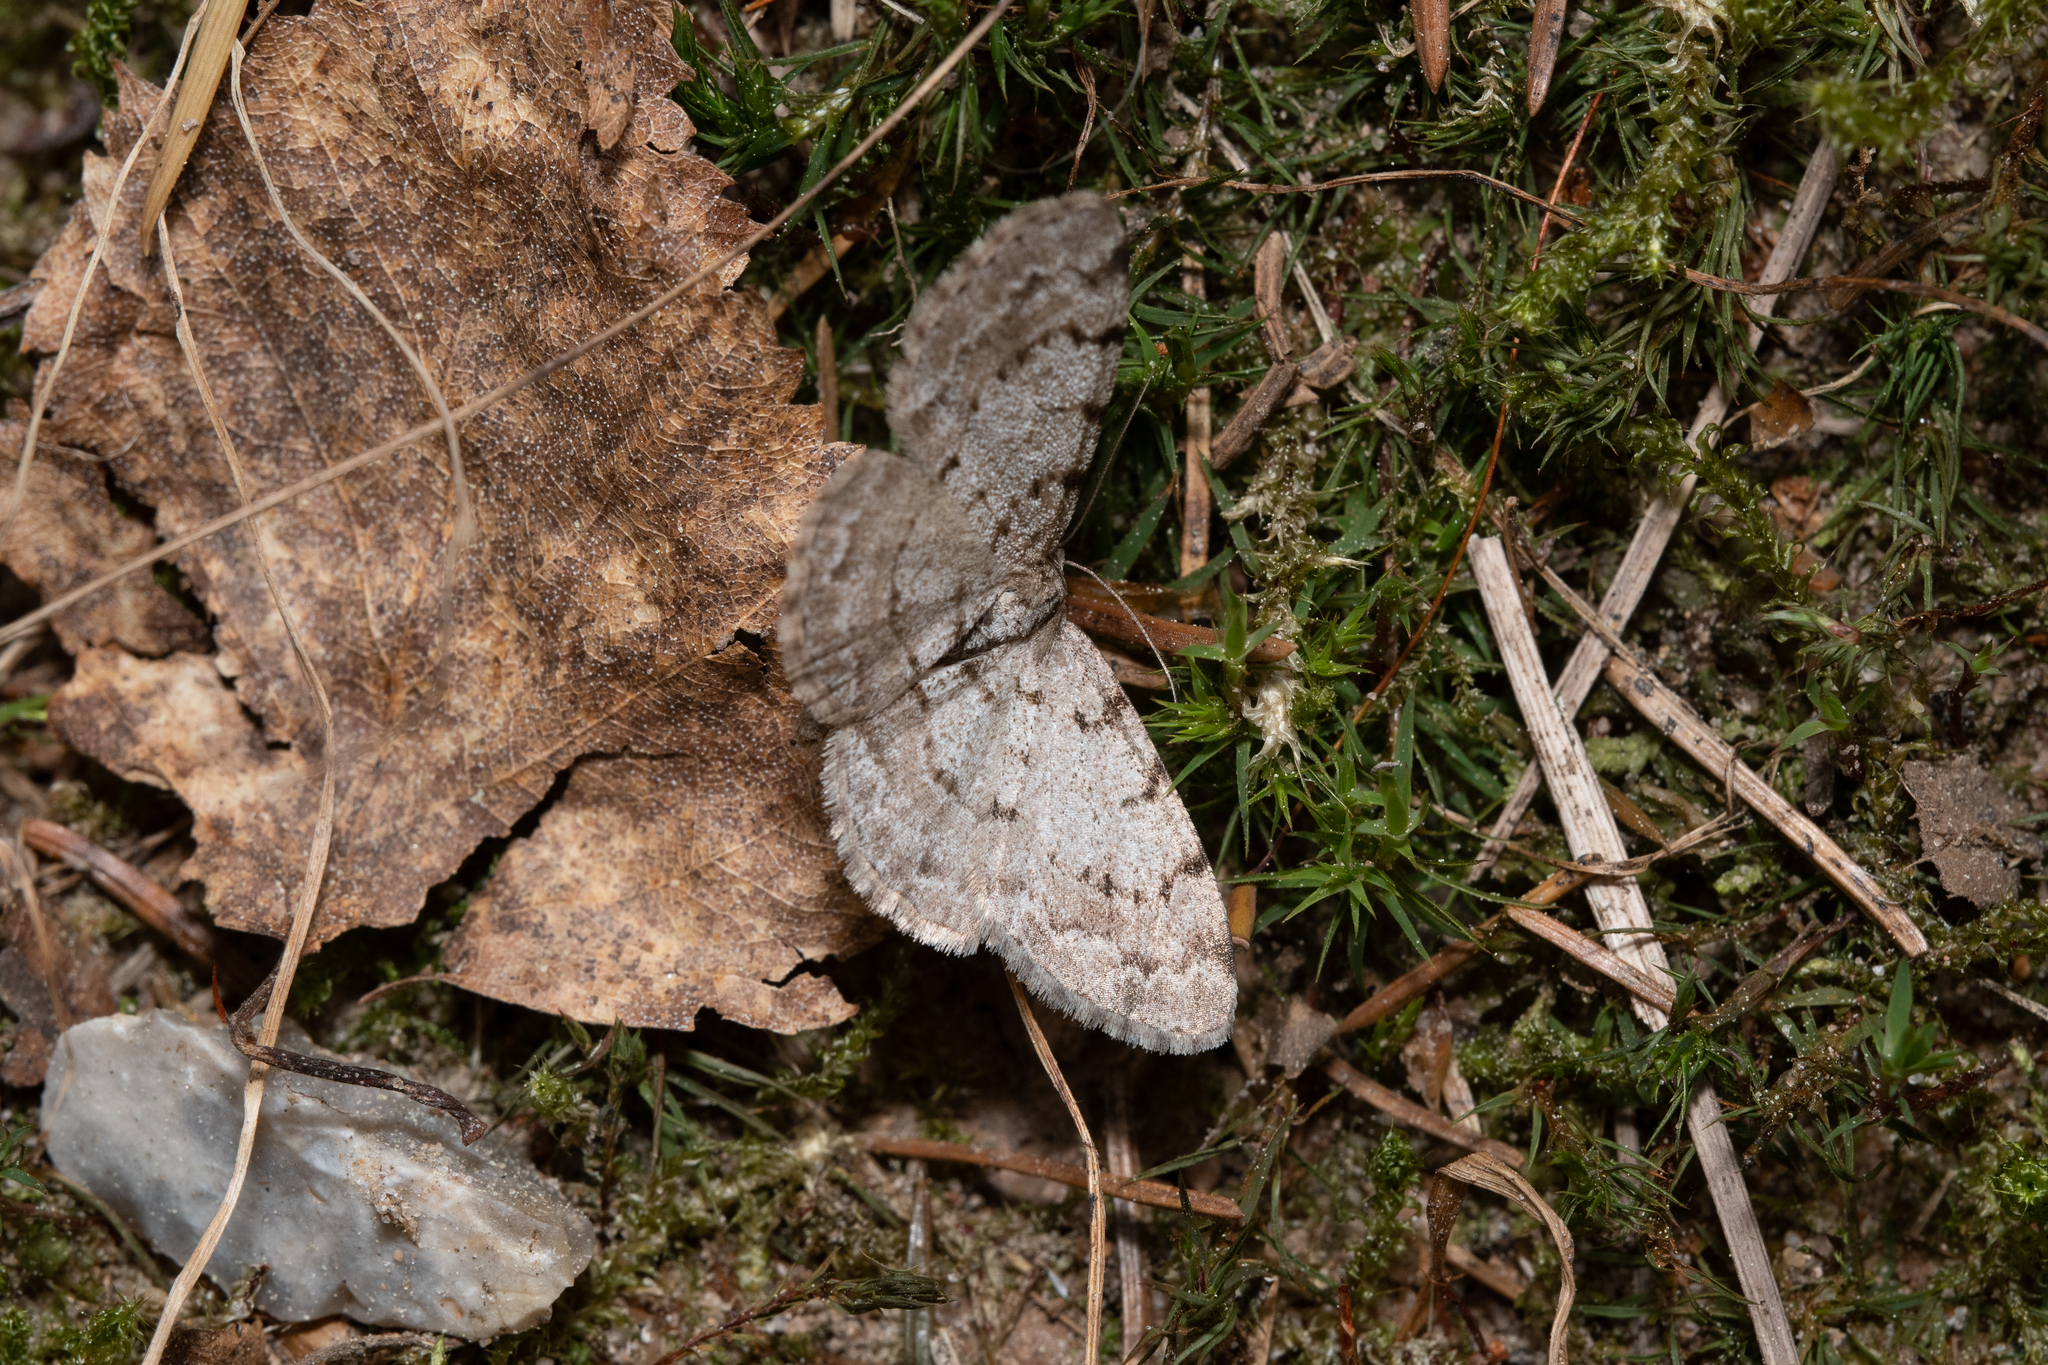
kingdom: Animalia
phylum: Arthropoda
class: Insecta
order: Lepidoptera
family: Geometridae
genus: Aethalura
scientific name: Aethalura punctulata
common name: Grey birch
